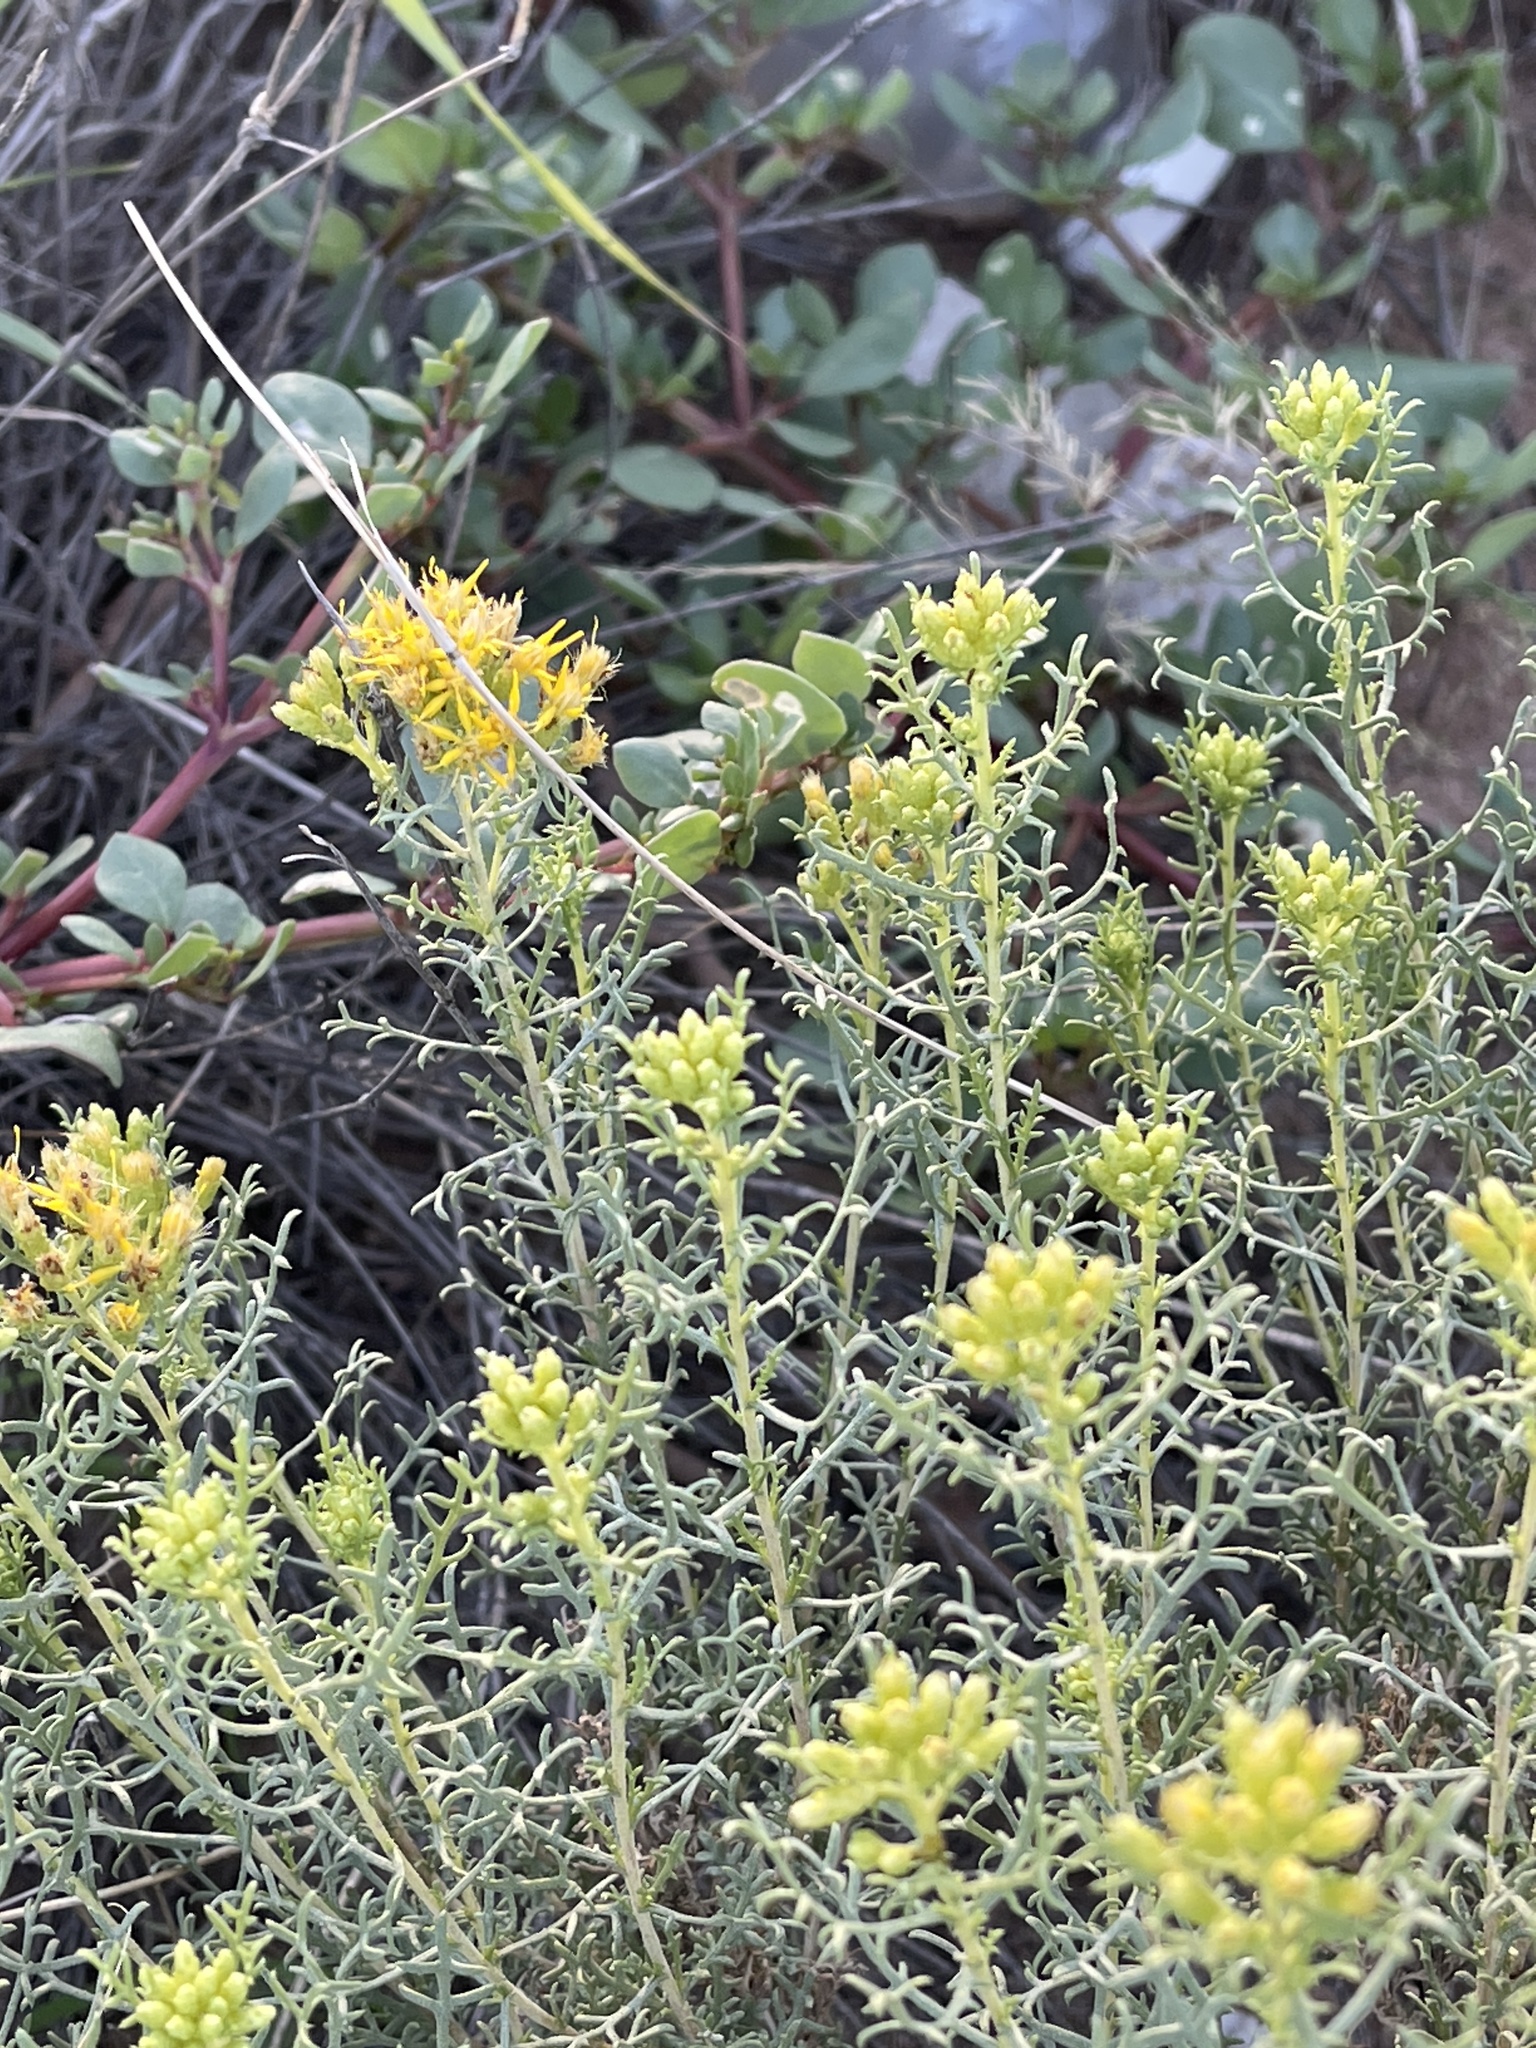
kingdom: Plantae
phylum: Tracheophyta
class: Magnoliopsida
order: Asterales
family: Asteraceae
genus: Isocoma
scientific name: Isocoma tenuisecta
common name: Burroweed
